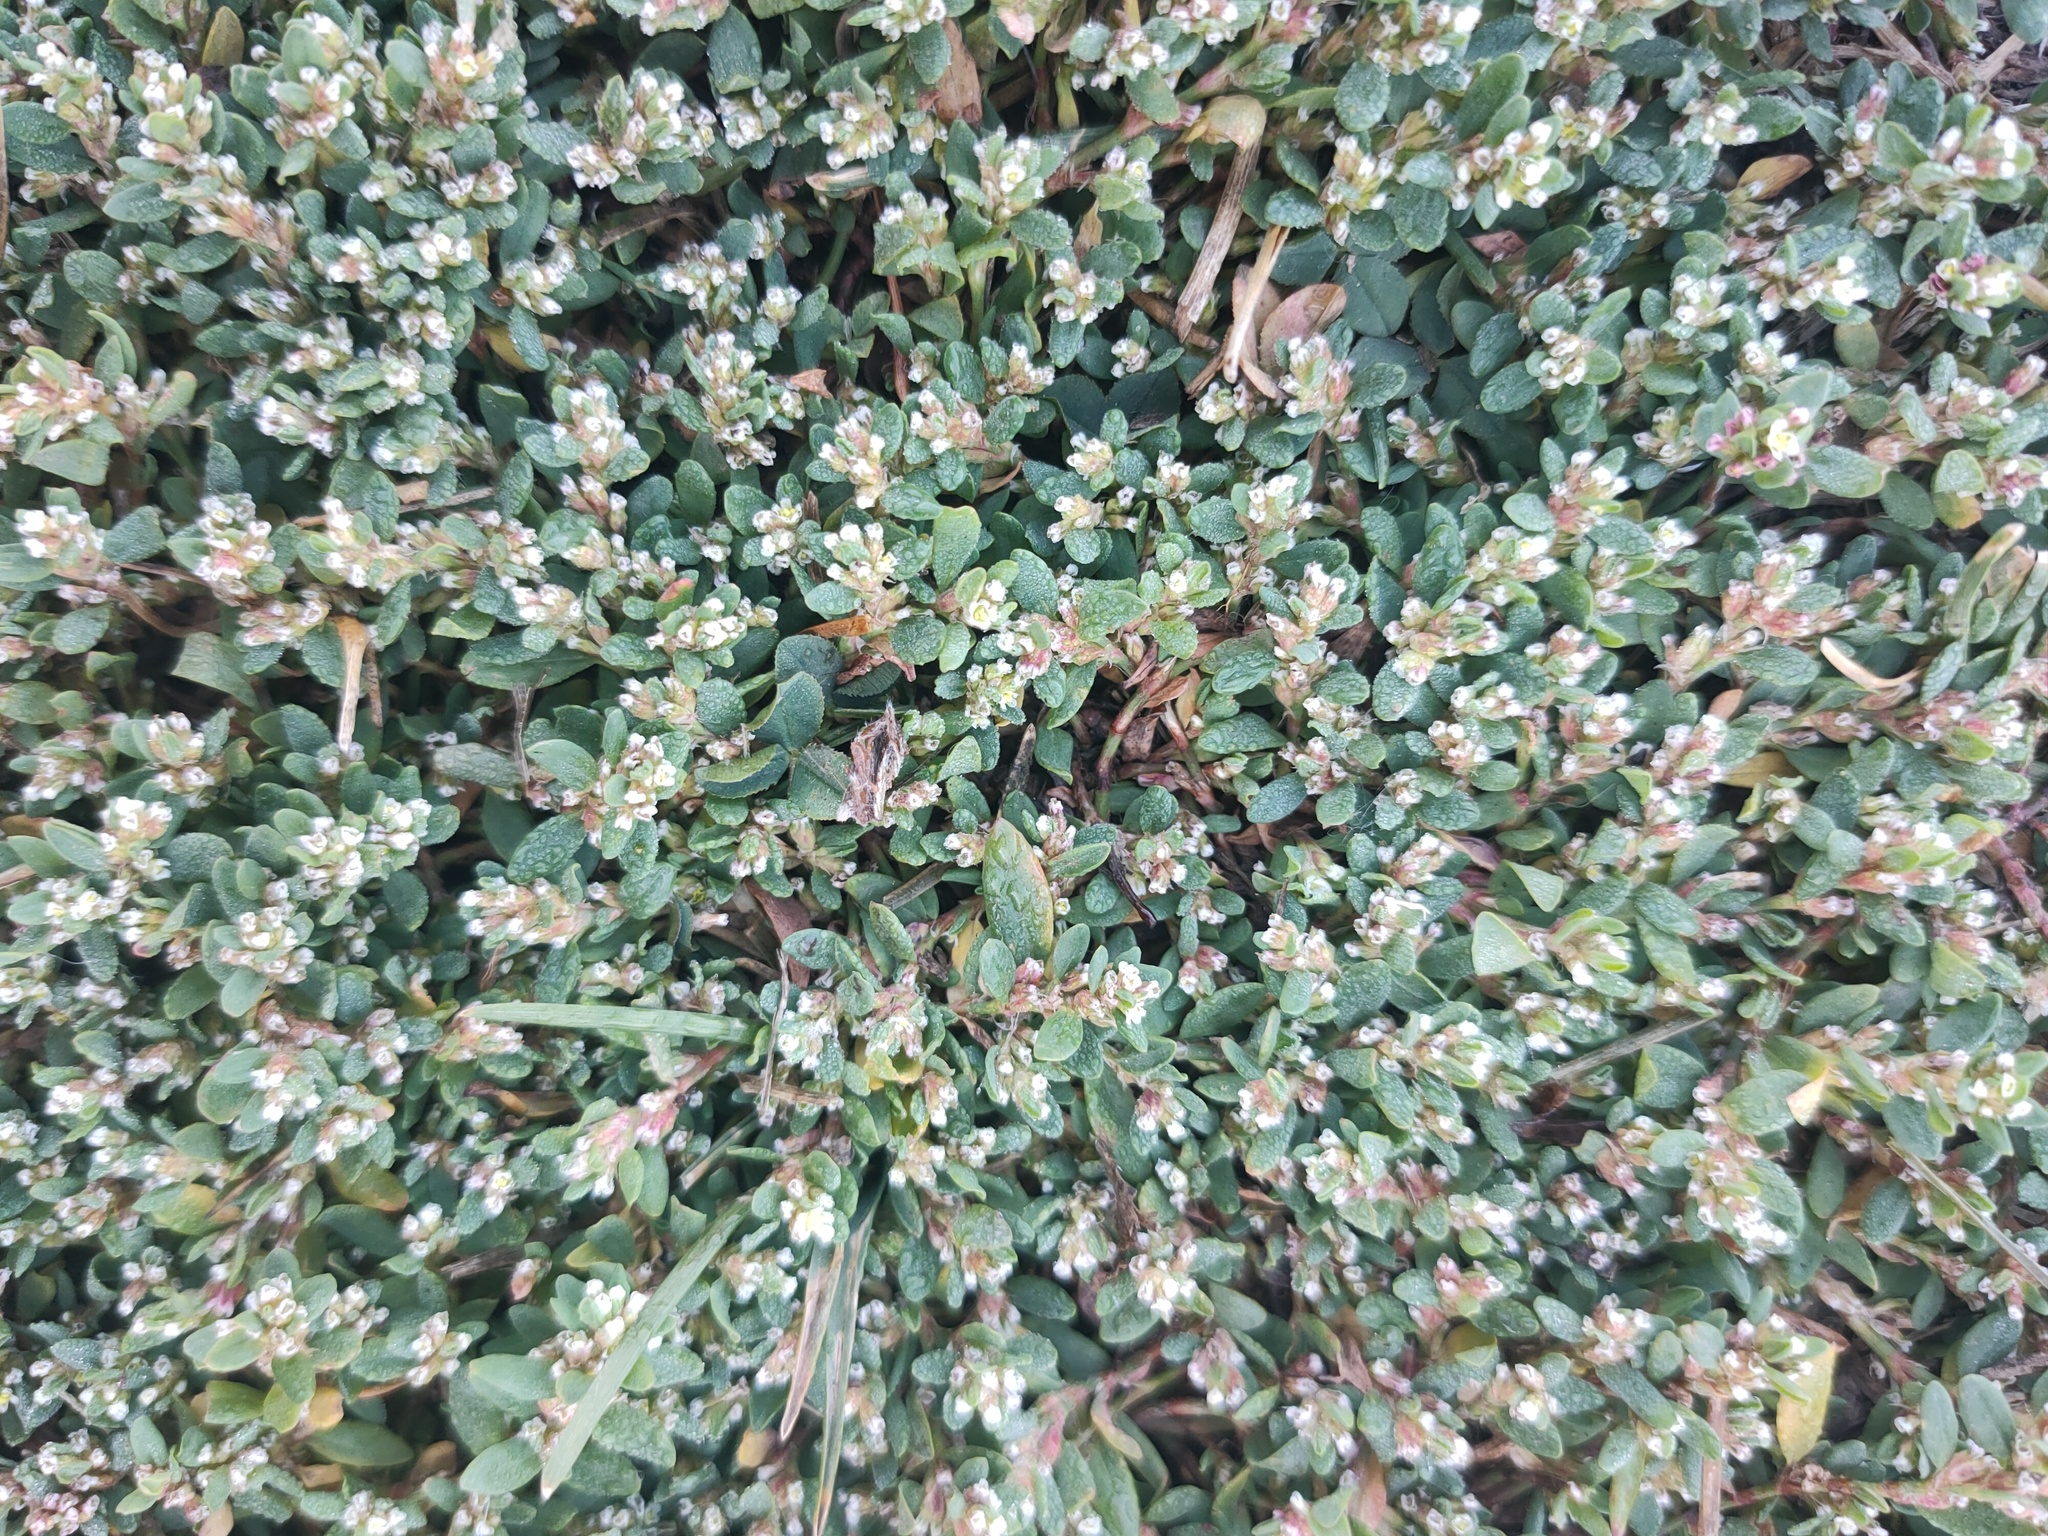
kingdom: Plantae
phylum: Tracheophyta
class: Magnoliopsida
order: Caryophyllales
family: Polygonaceae
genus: Polygonum
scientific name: Polygonum arenastrum
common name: Equal-leaved knotgrass
